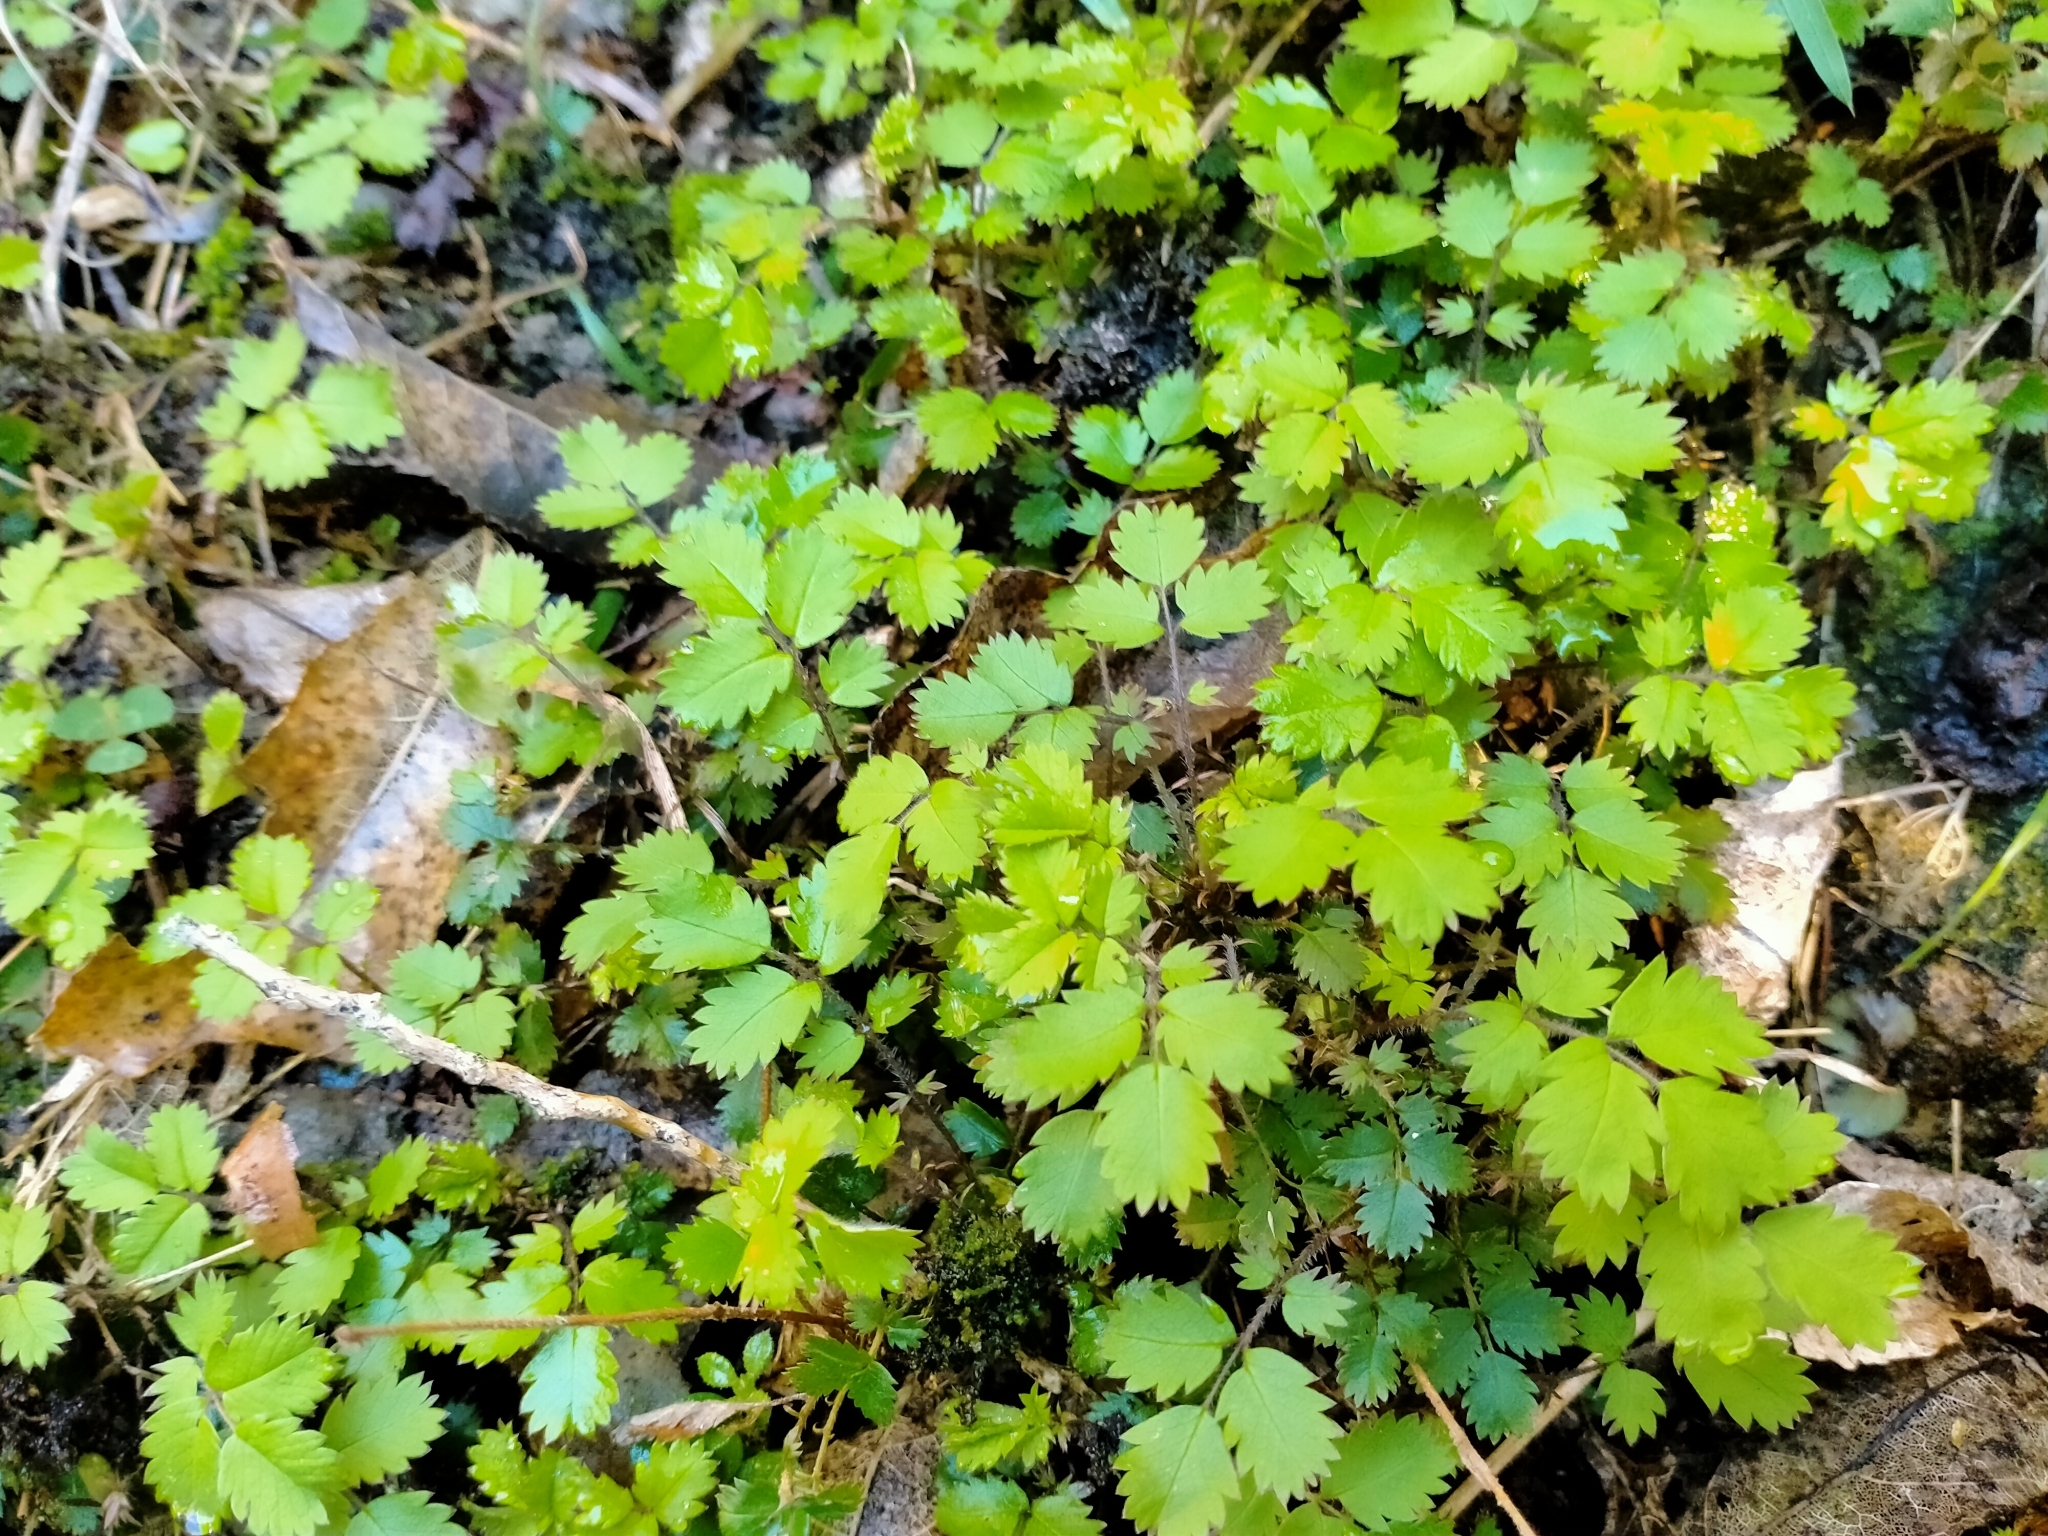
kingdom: Plantae
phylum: Tracheophyta
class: Magnoliopsida
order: Rosales
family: Rosaceae
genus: Acaena
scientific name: Acaena juvenca
